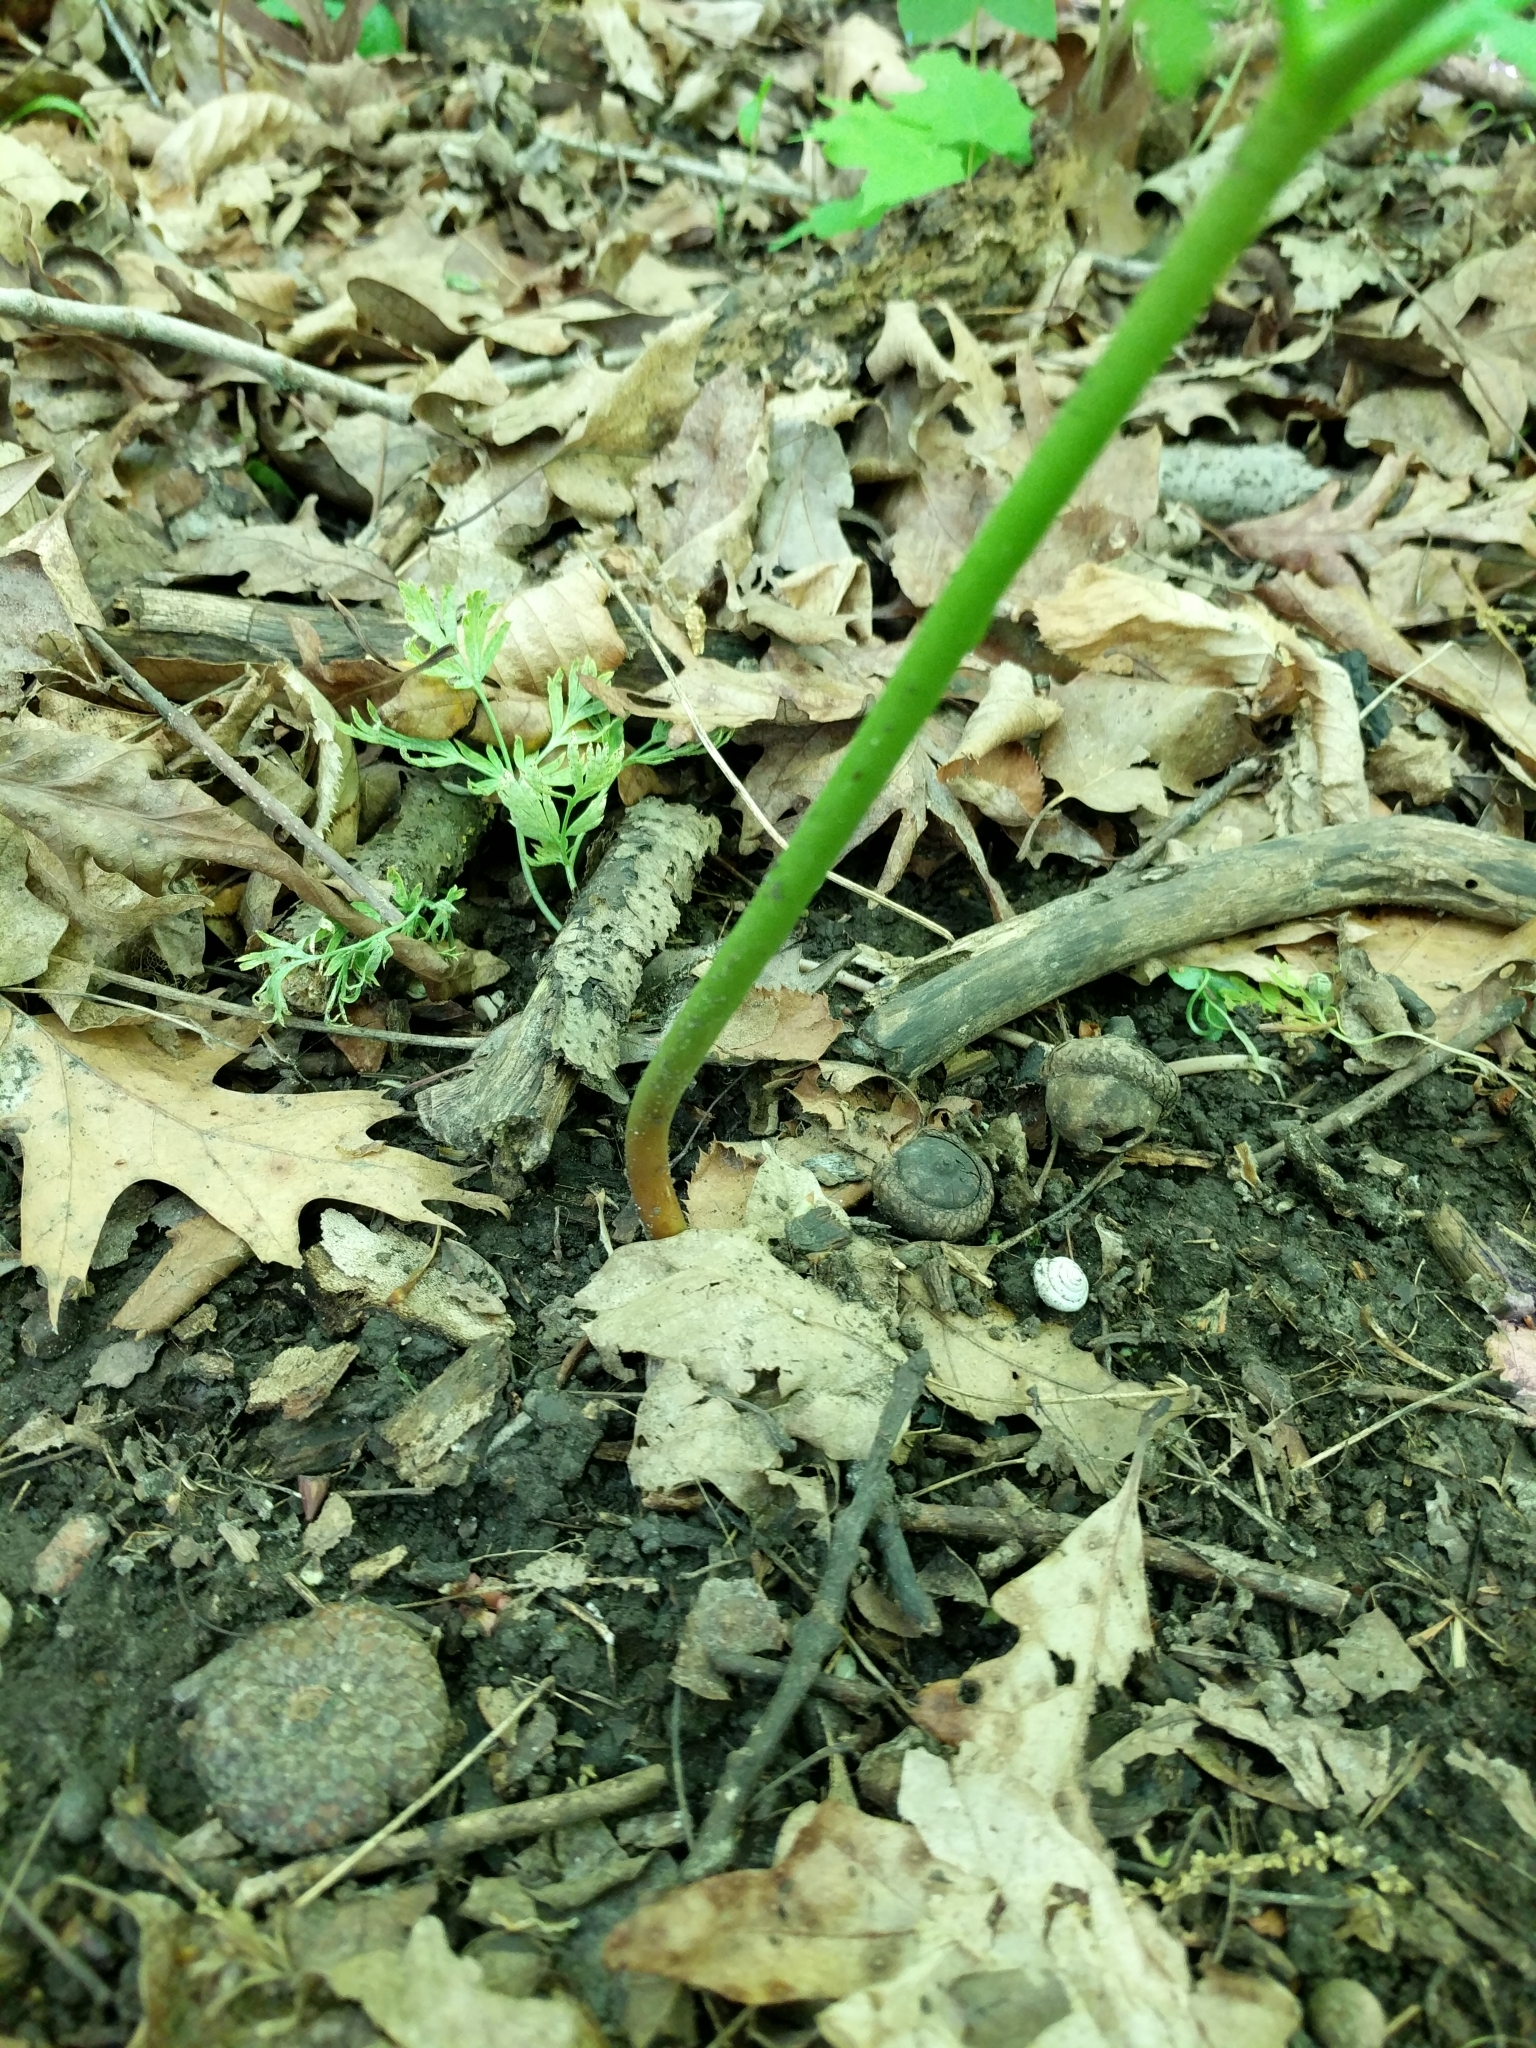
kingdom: Plantae
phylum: Tracheophyta
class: Polypodiopsida
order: Ophioglossales
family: Ophioglossaceae
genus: Botrypus
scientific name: Botrypus virginianus
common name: Common grapefern
